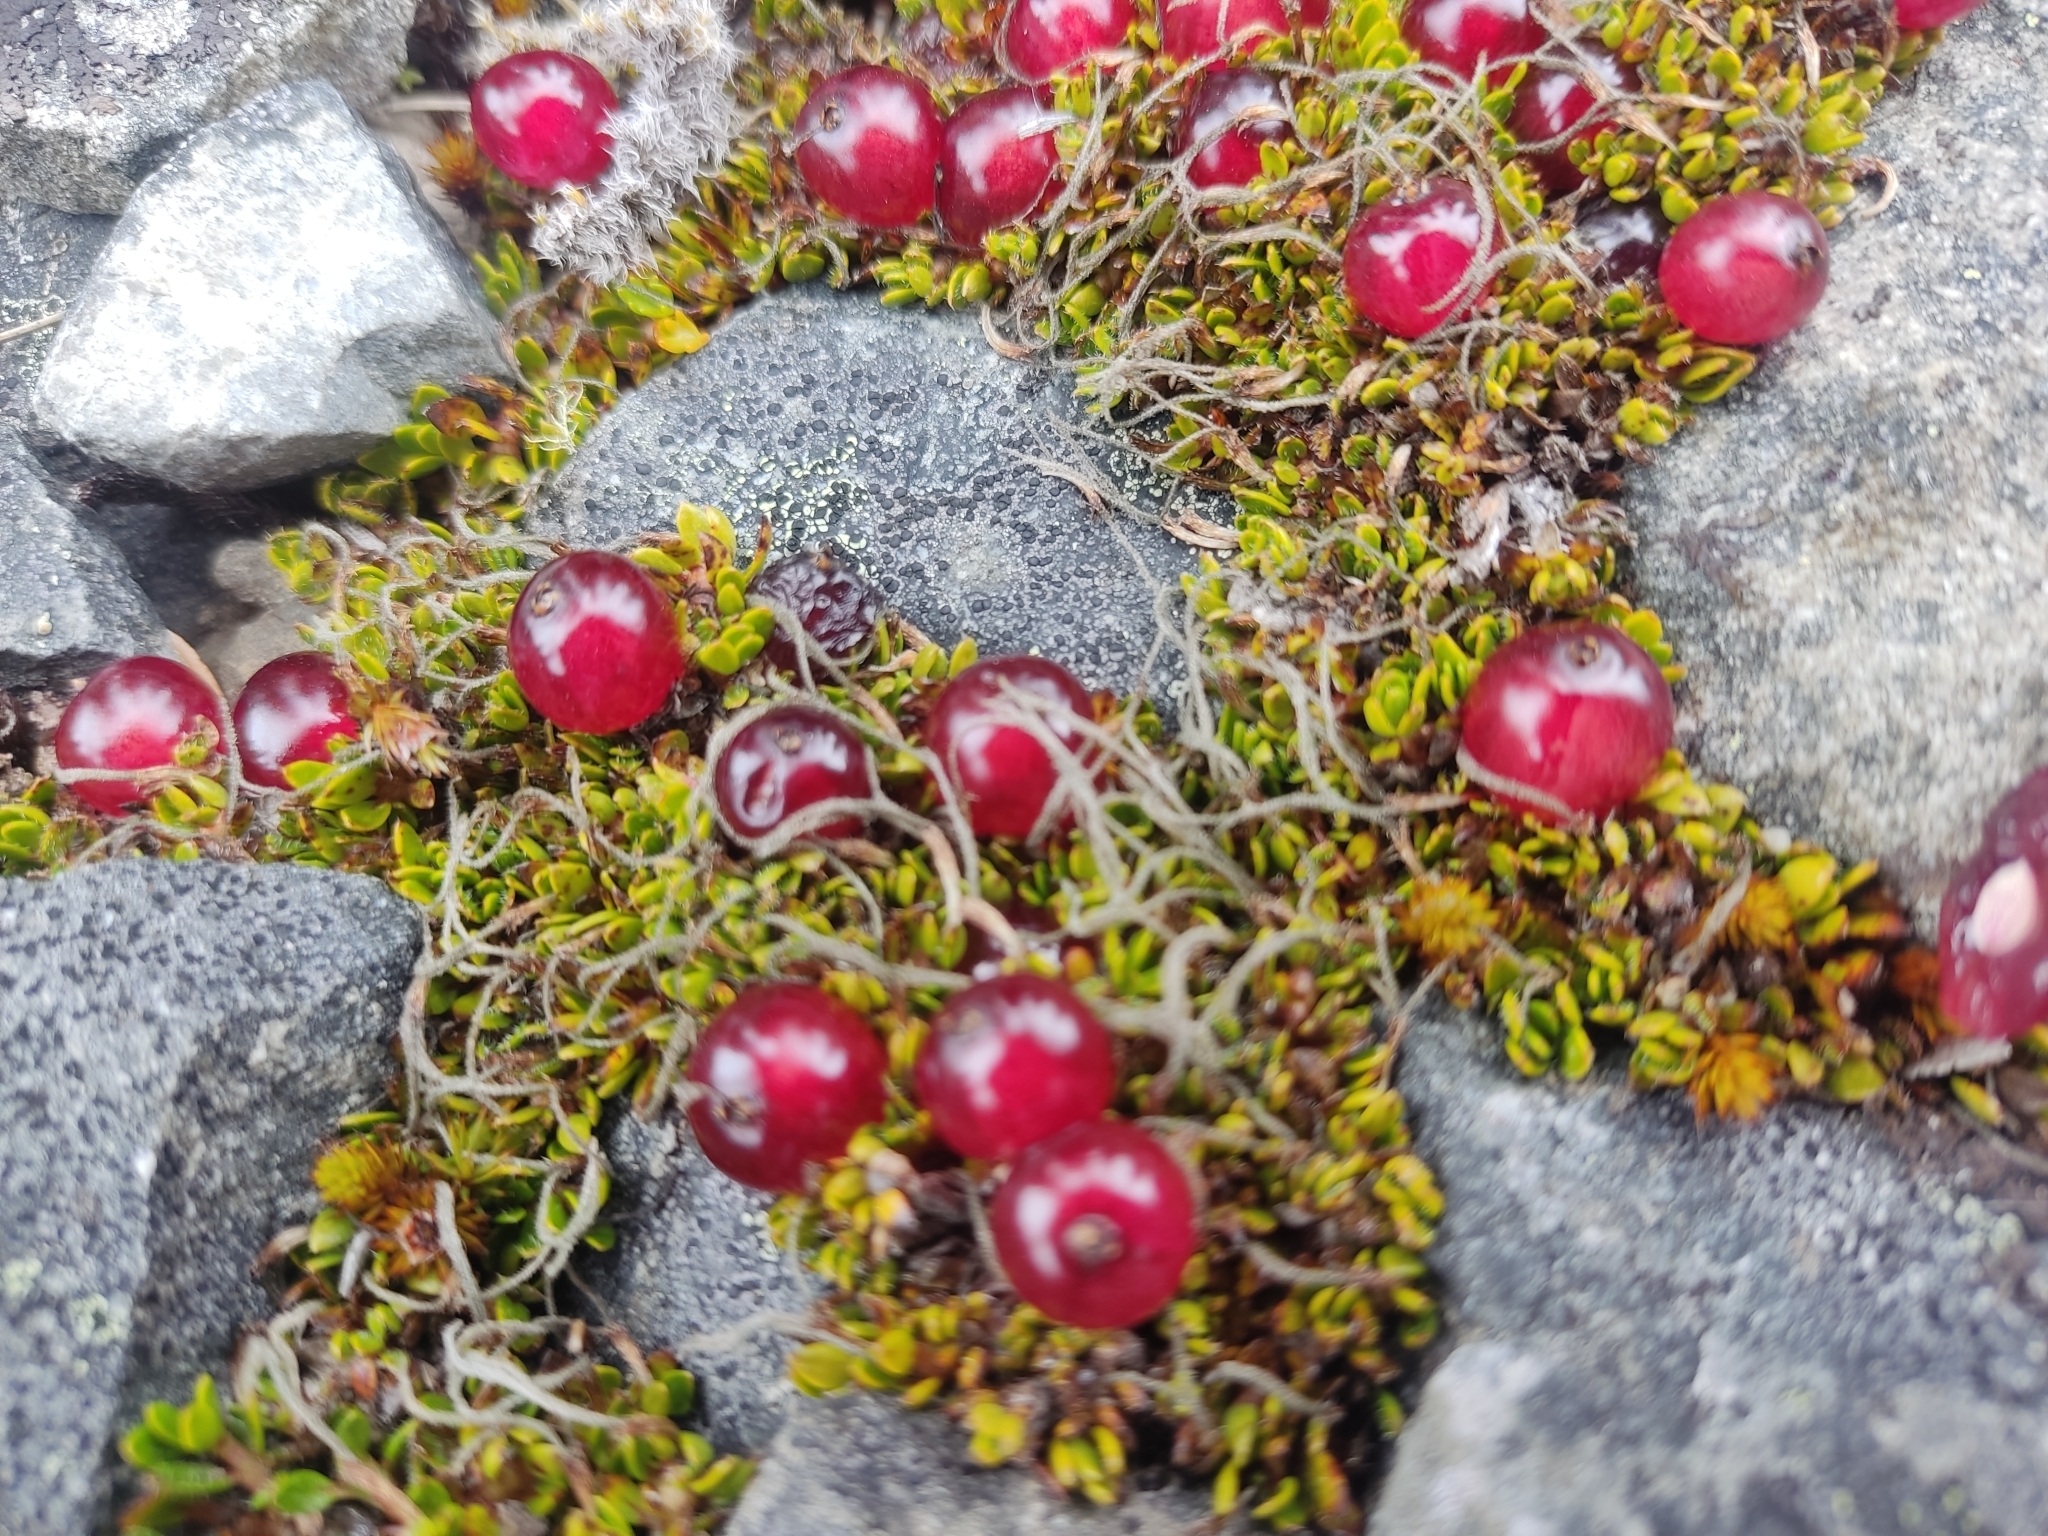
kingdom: Plantae
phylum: Tracheophyta
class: Magnoliopsida
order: Gentianales
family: Rubiaceae
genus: Coprosma
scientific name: Coprosma atropurpurea
